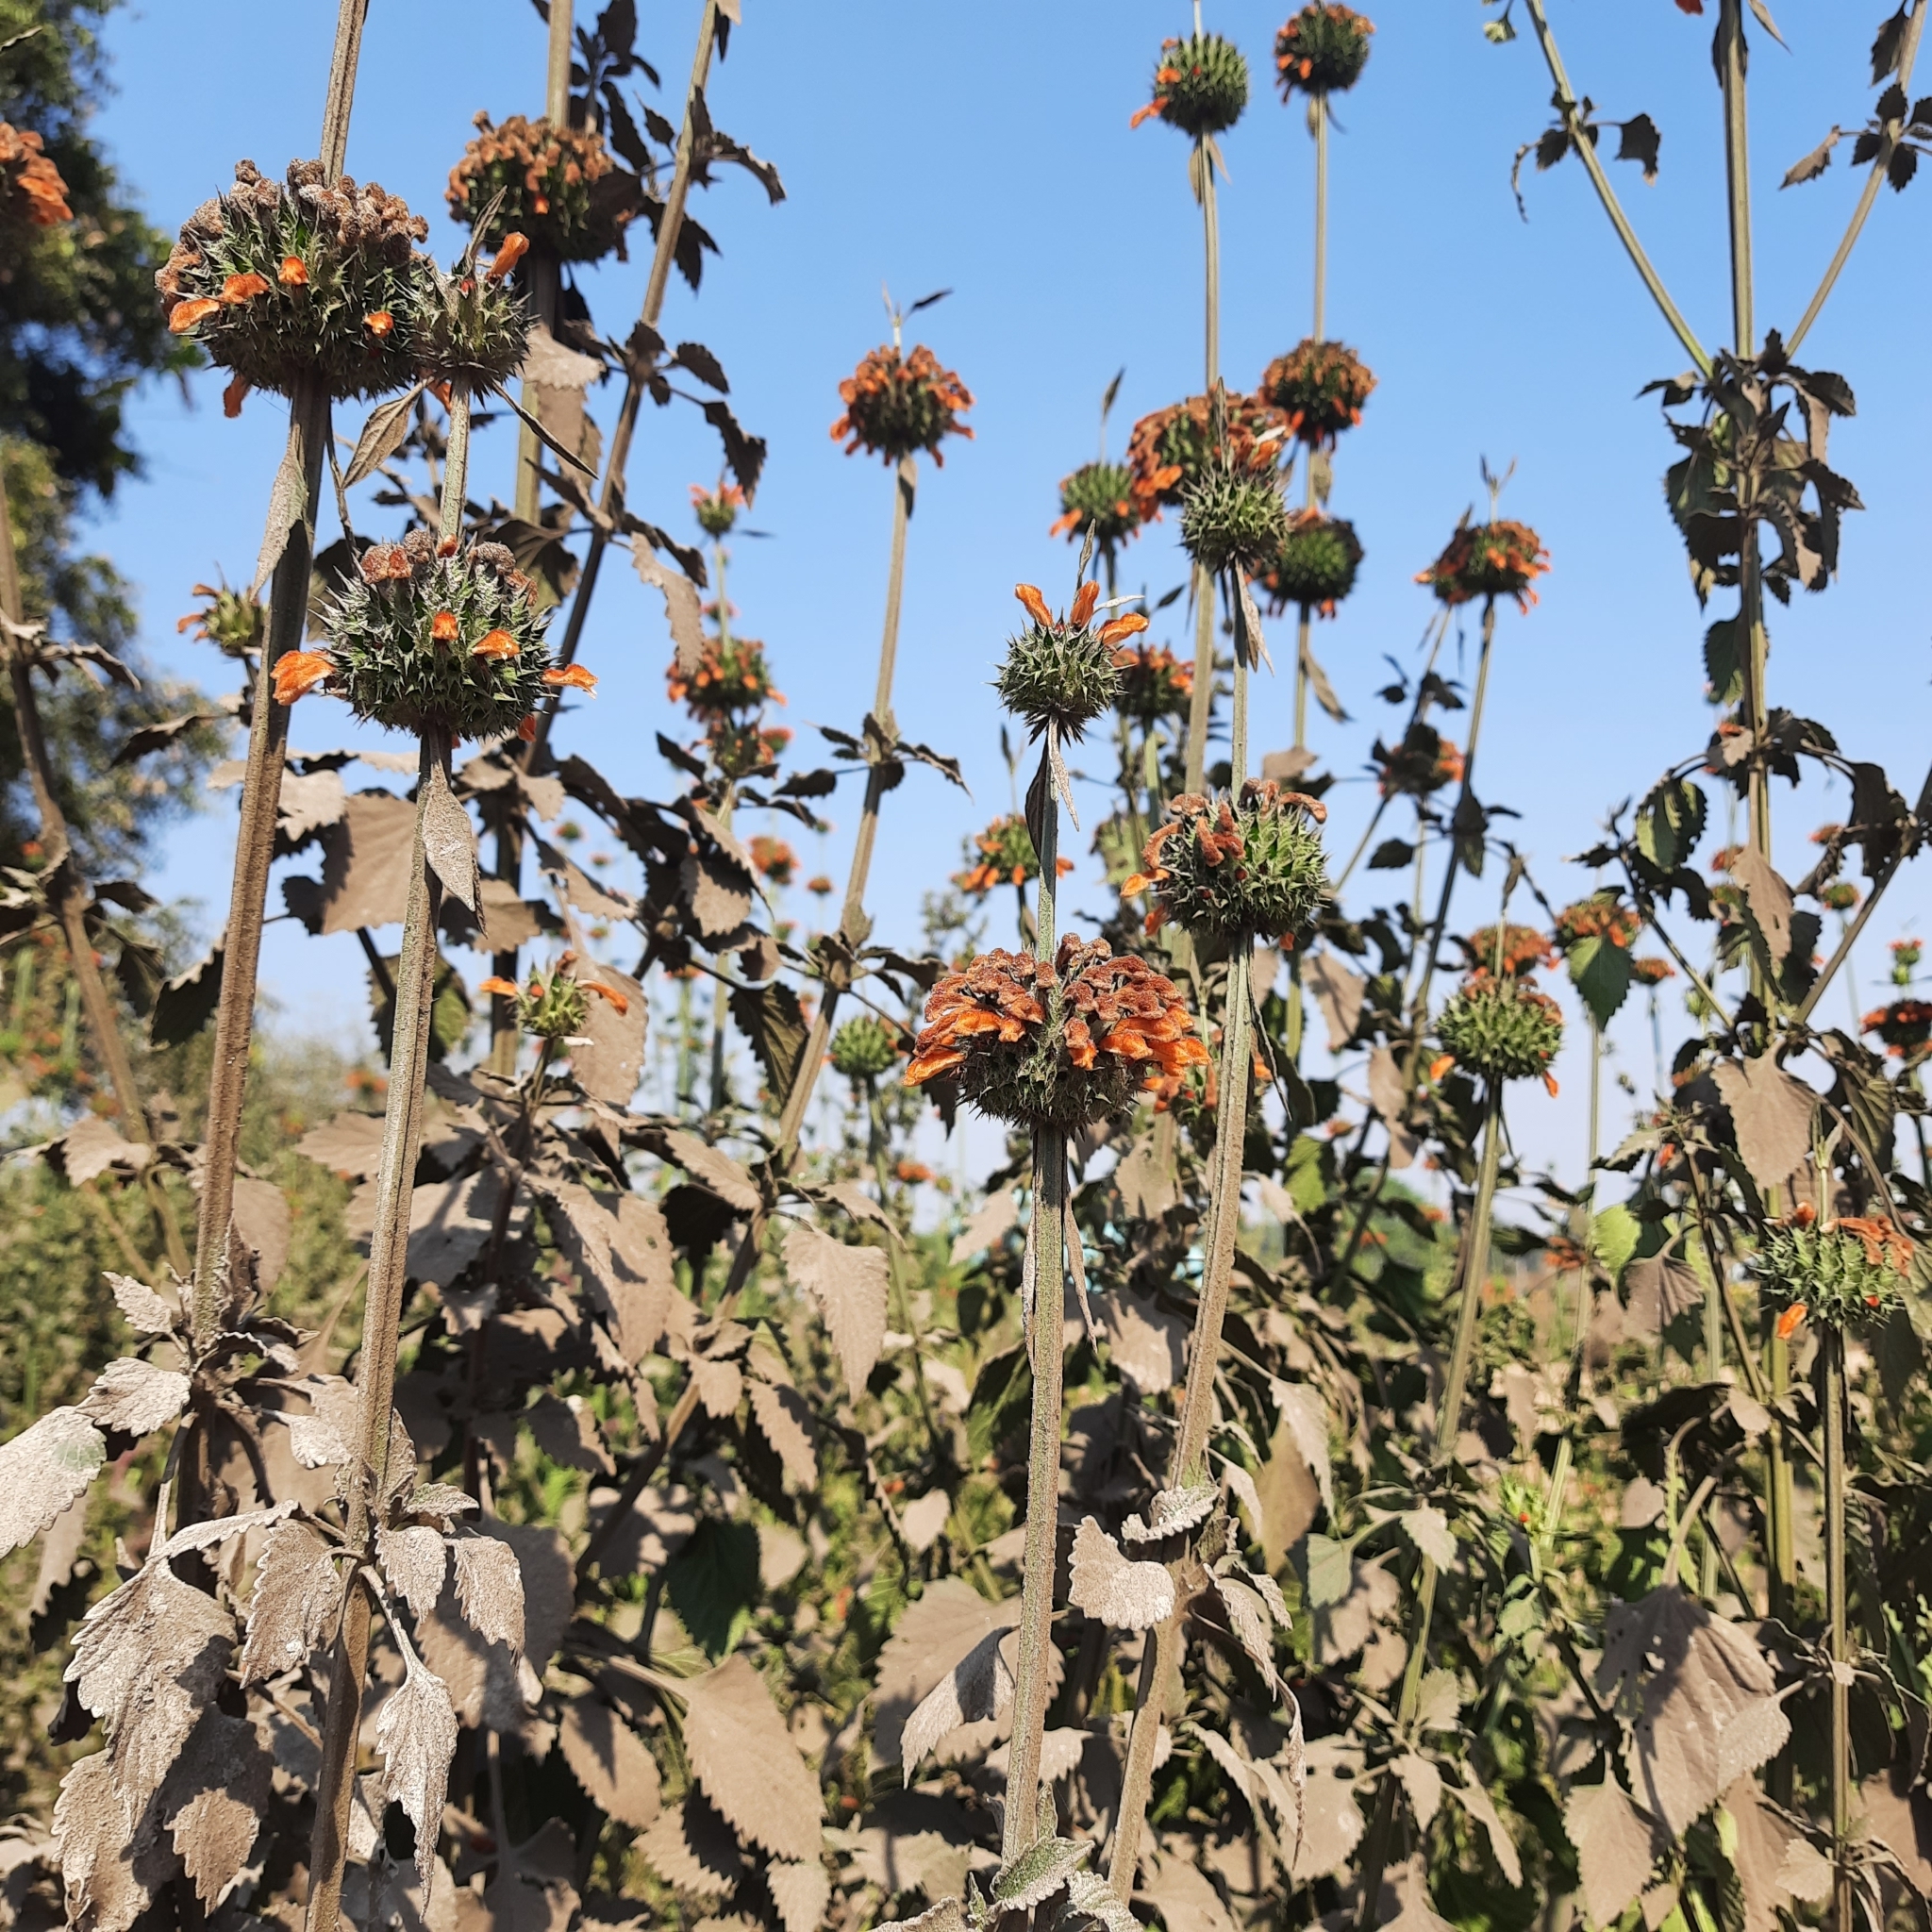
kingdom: Plantae
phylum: Tracheophyta
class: Magnoliopsida
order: Lamiales
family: Lamiaceae
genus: Leonotis
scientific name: Leonotis nepetifolia
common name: Christmas candlestick
